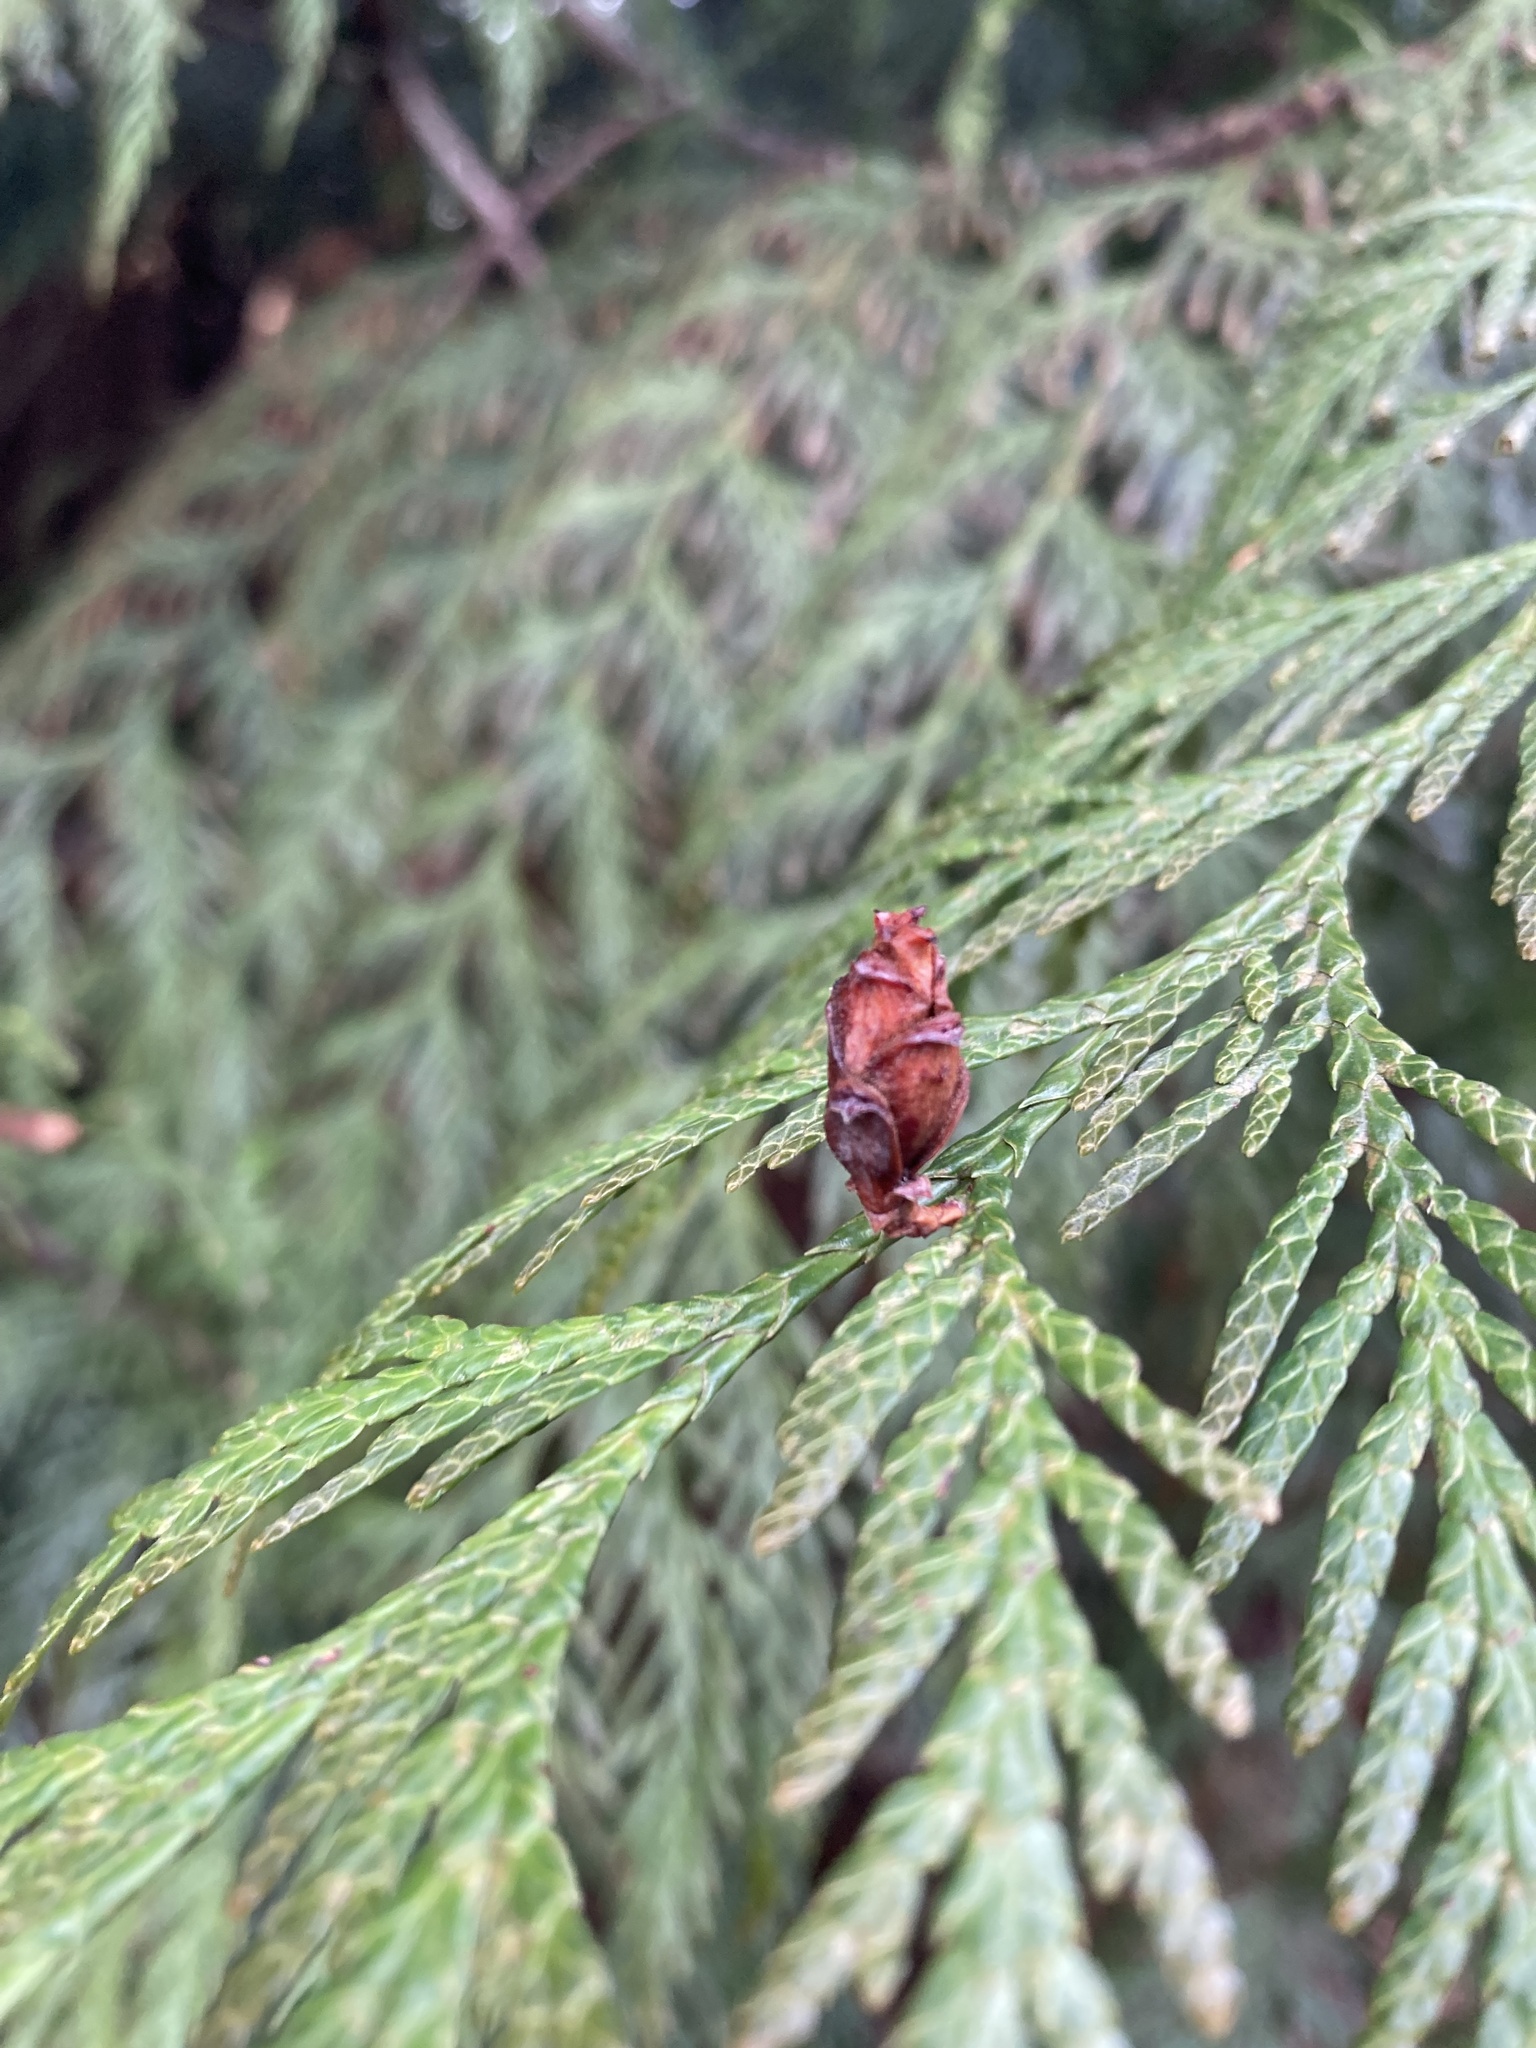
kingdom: Plantae
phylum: Tracheophyta
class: Pinopsida
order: Pinales
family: Cupressaceae
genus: Thuja
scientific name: Thuja plicata
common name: Western red-cedar
